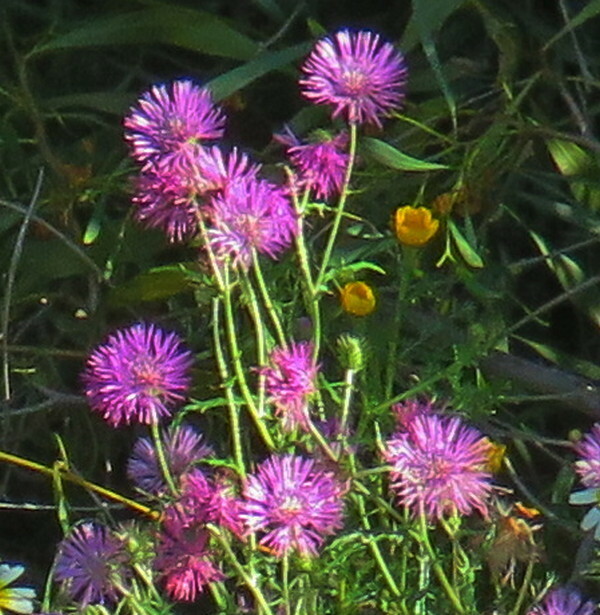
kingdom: Plantae
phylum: Tracheophyta
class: Magnoliopsida
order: Asterales
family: Asteraceae
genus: Galactites
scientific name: Galactites tomentosa
